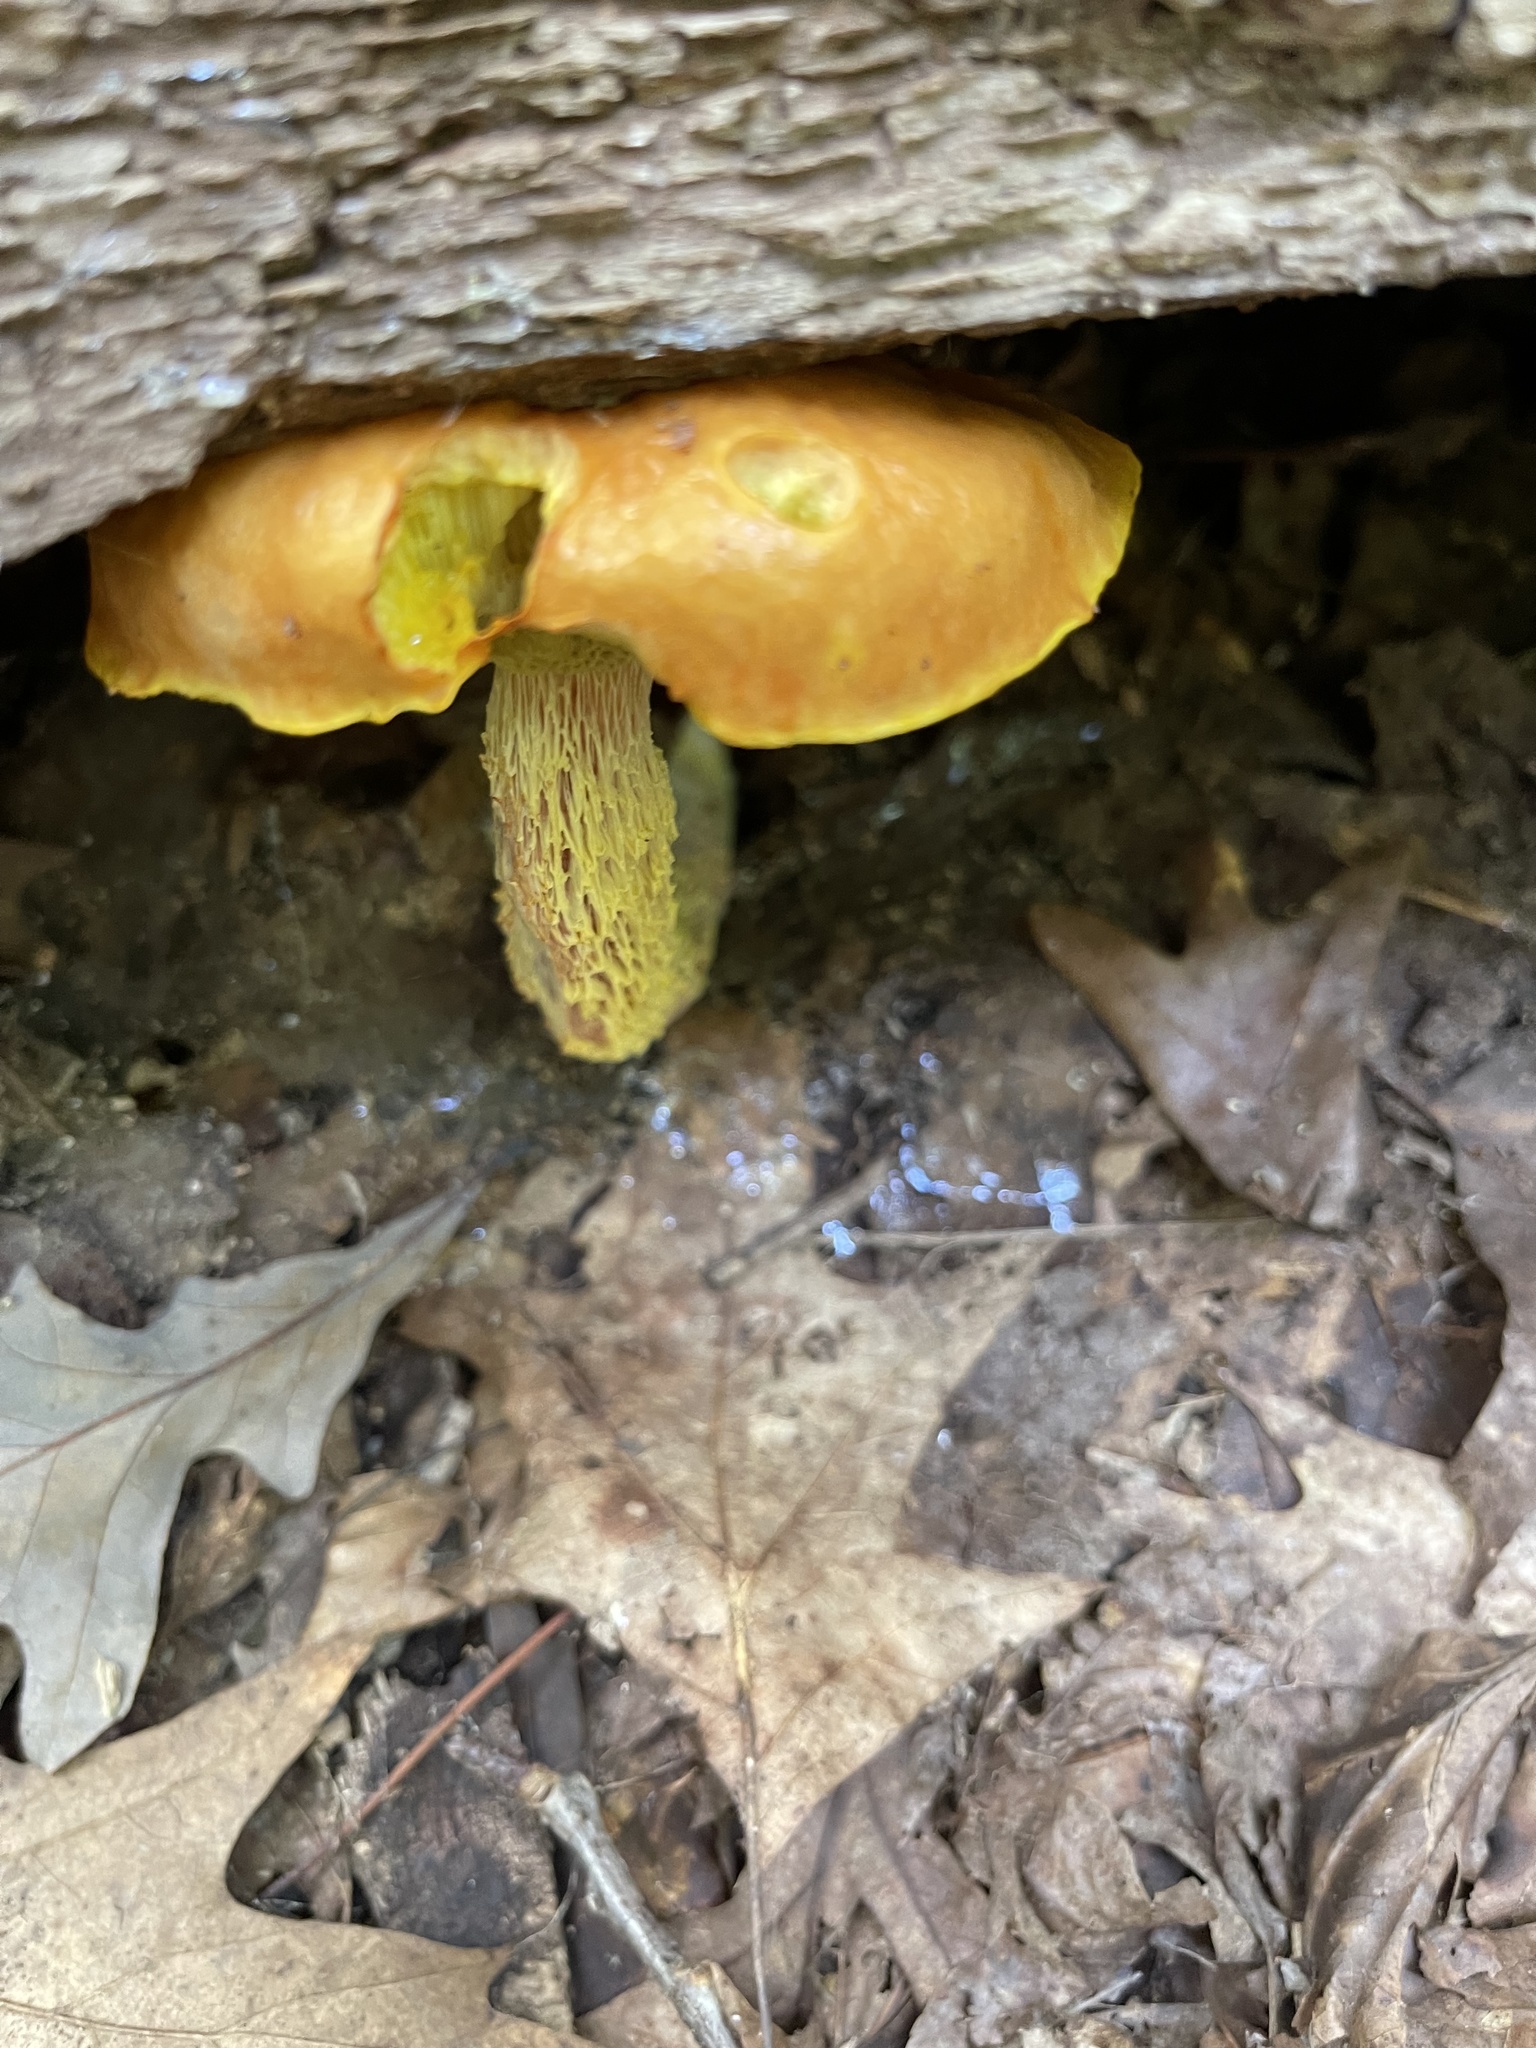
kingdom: Fungi
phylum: Basidiomycota
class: Agaricomycetes
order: Boletales
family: Boletaceae
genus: Aureoboletus
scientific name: Aureoboletus betula
